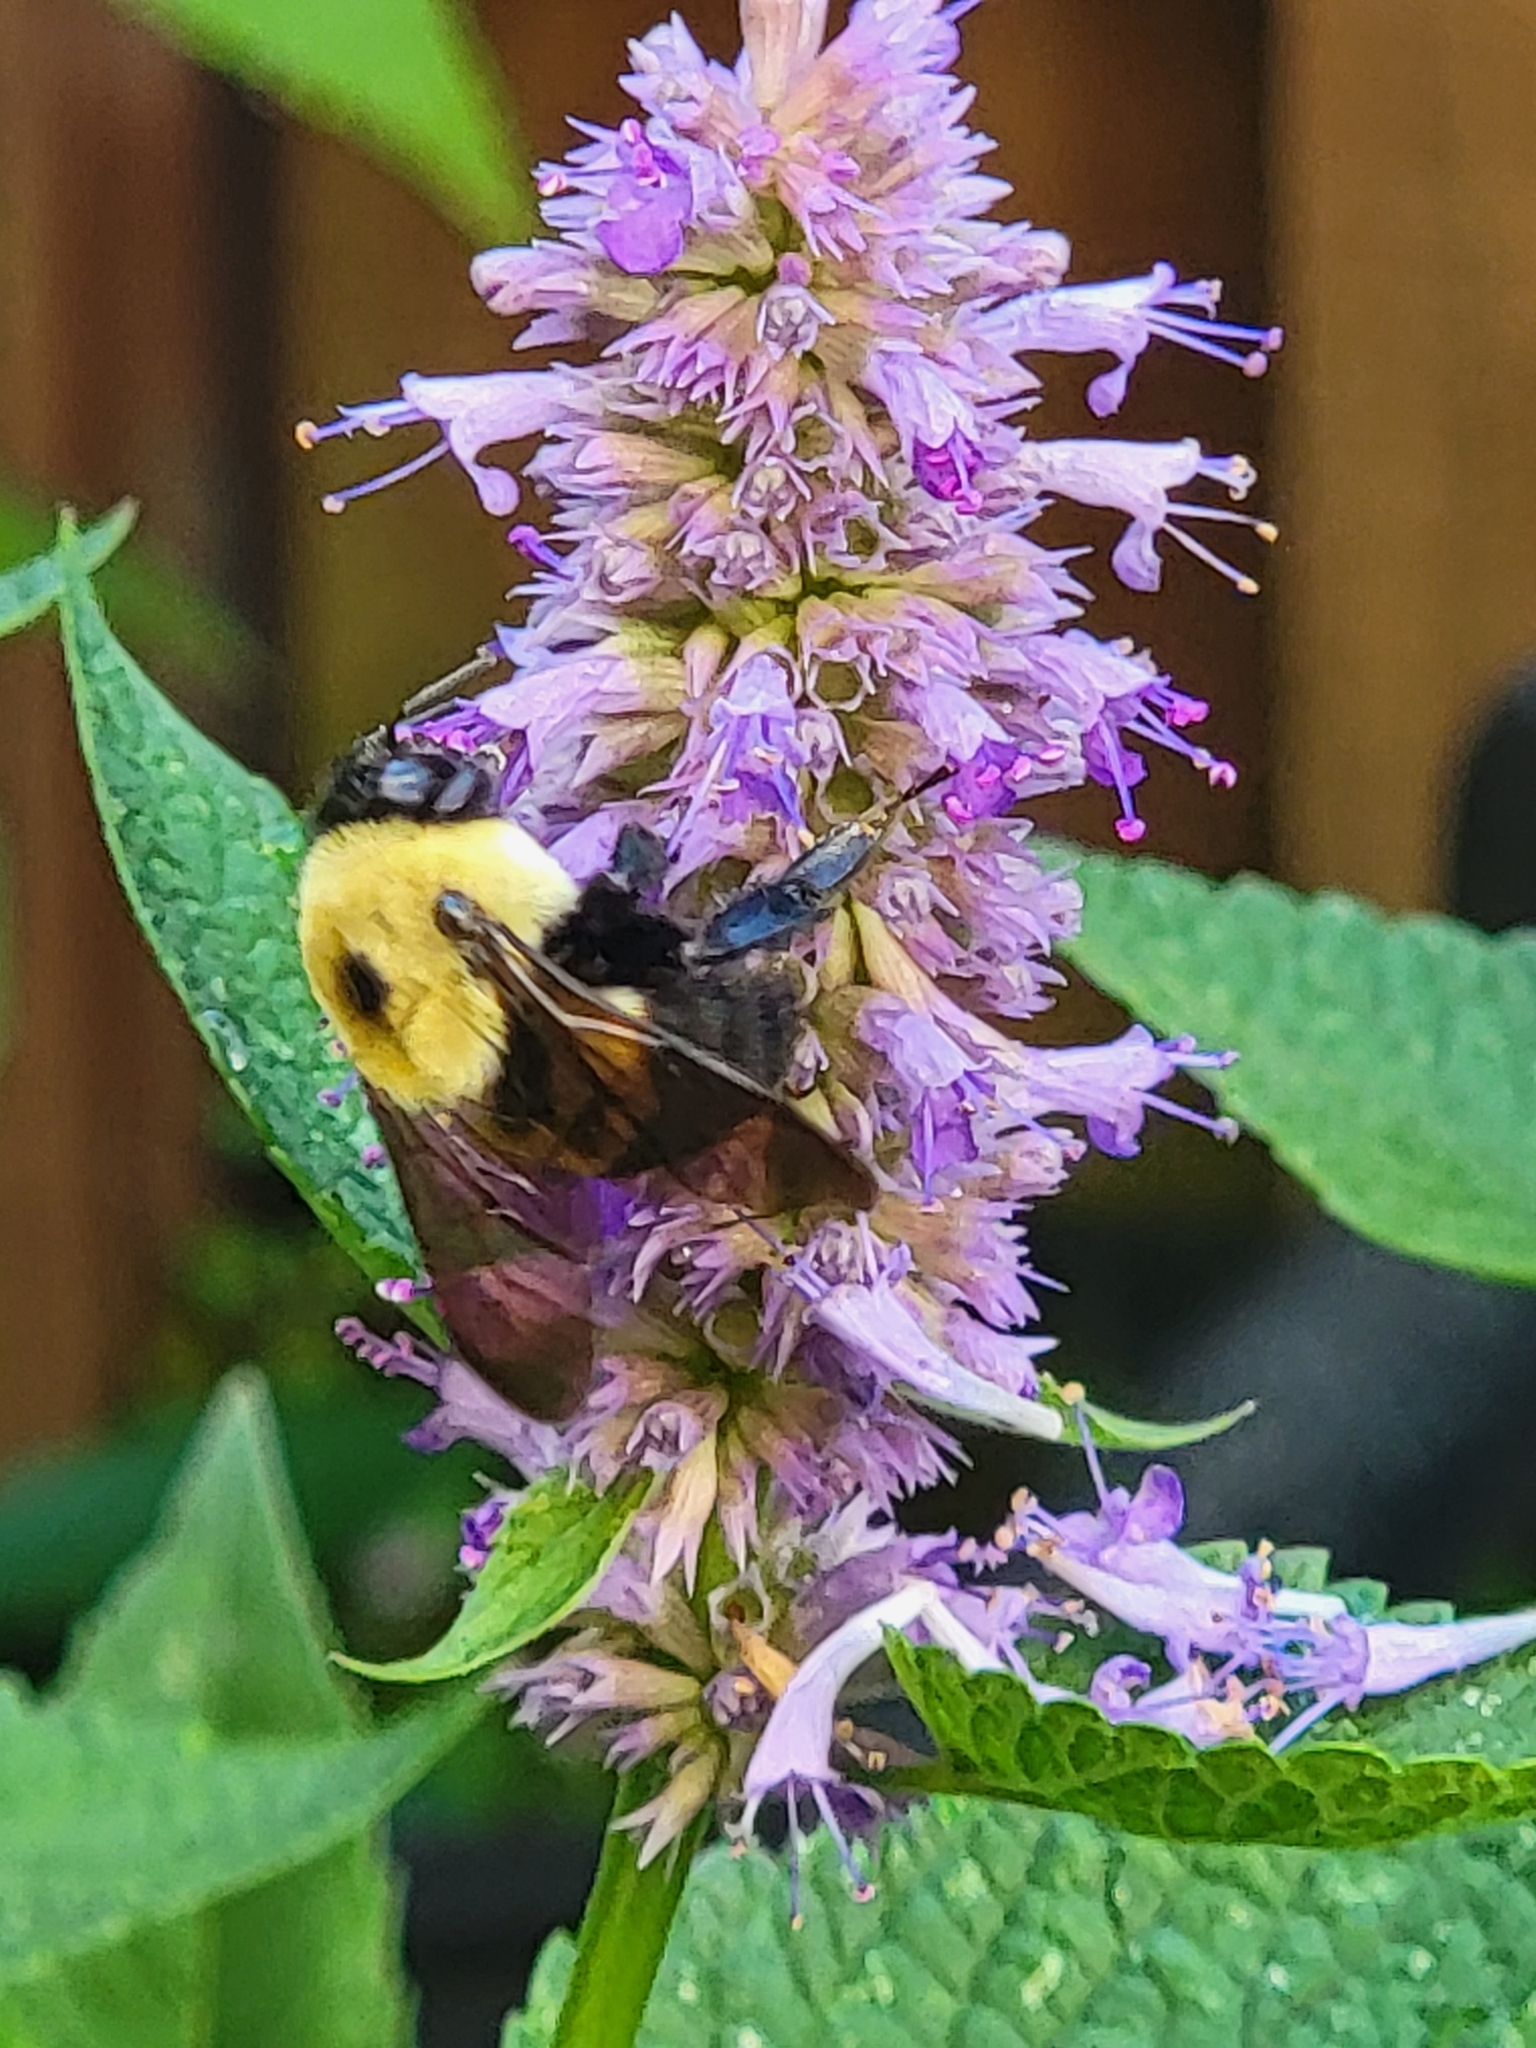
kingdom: Animalia
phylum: Arthropoda
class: Insecta
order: Hymenoptera
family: Apidae
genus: Bombus
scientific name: Bombus griseocollis
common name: Brown-belted bumble bee
